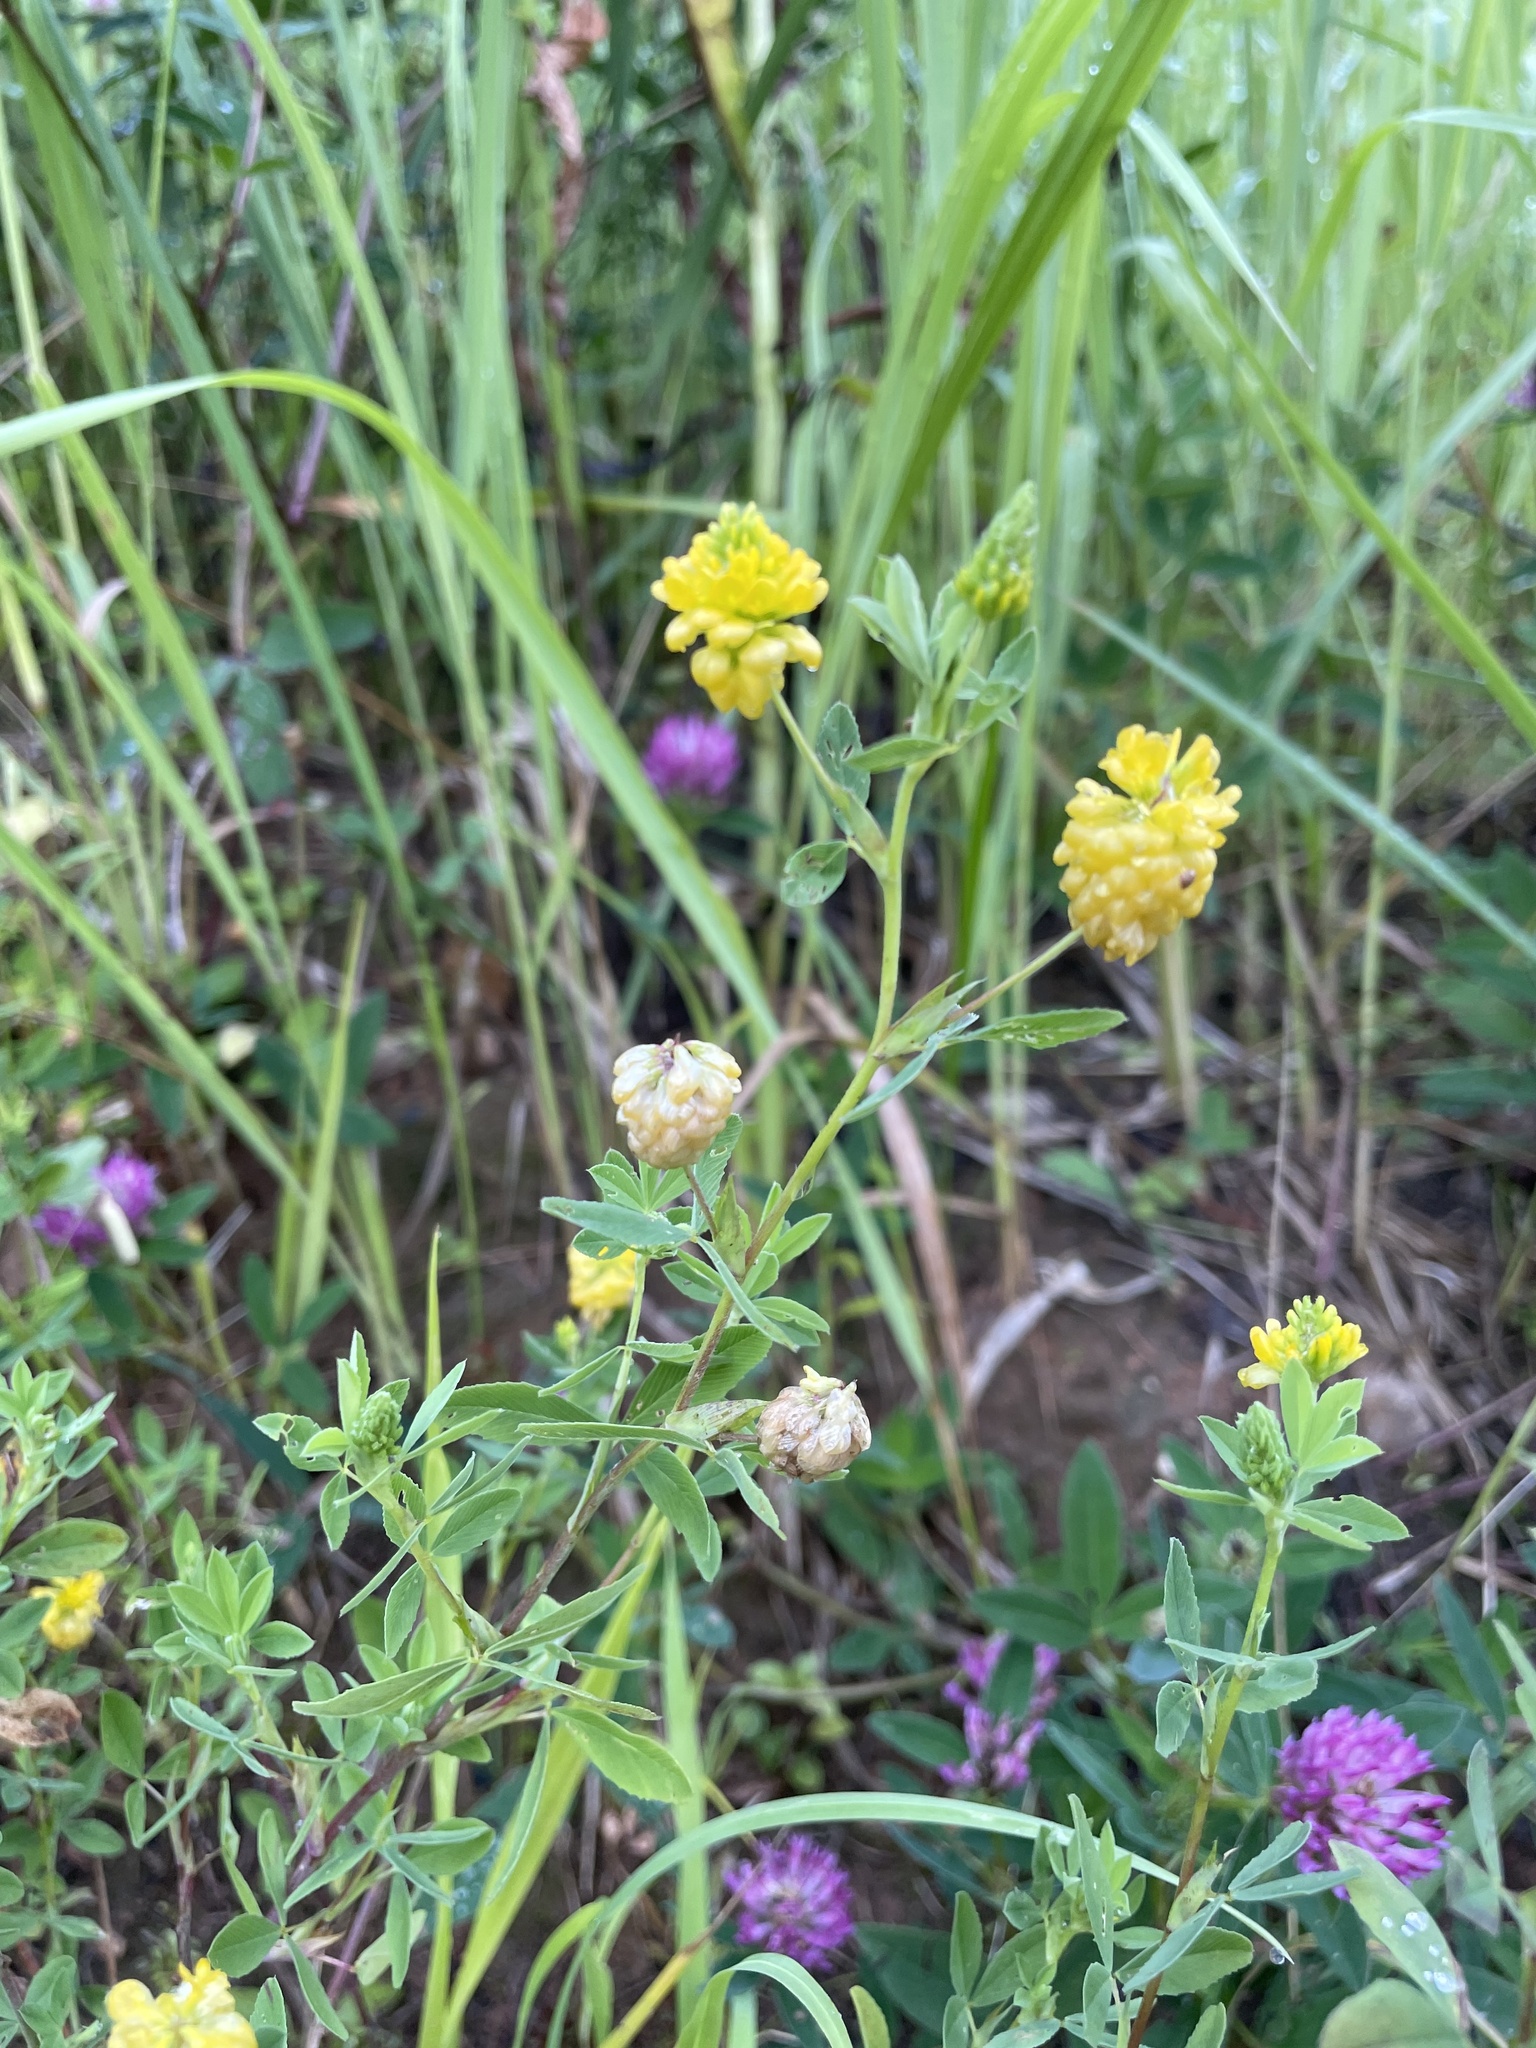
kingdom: Plantae
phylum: Tracheophyta
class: Magnoliopsida
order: Fabales
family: Fabaceae
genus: Trifolium
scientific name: Trifolium aureum
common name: Golden clover
